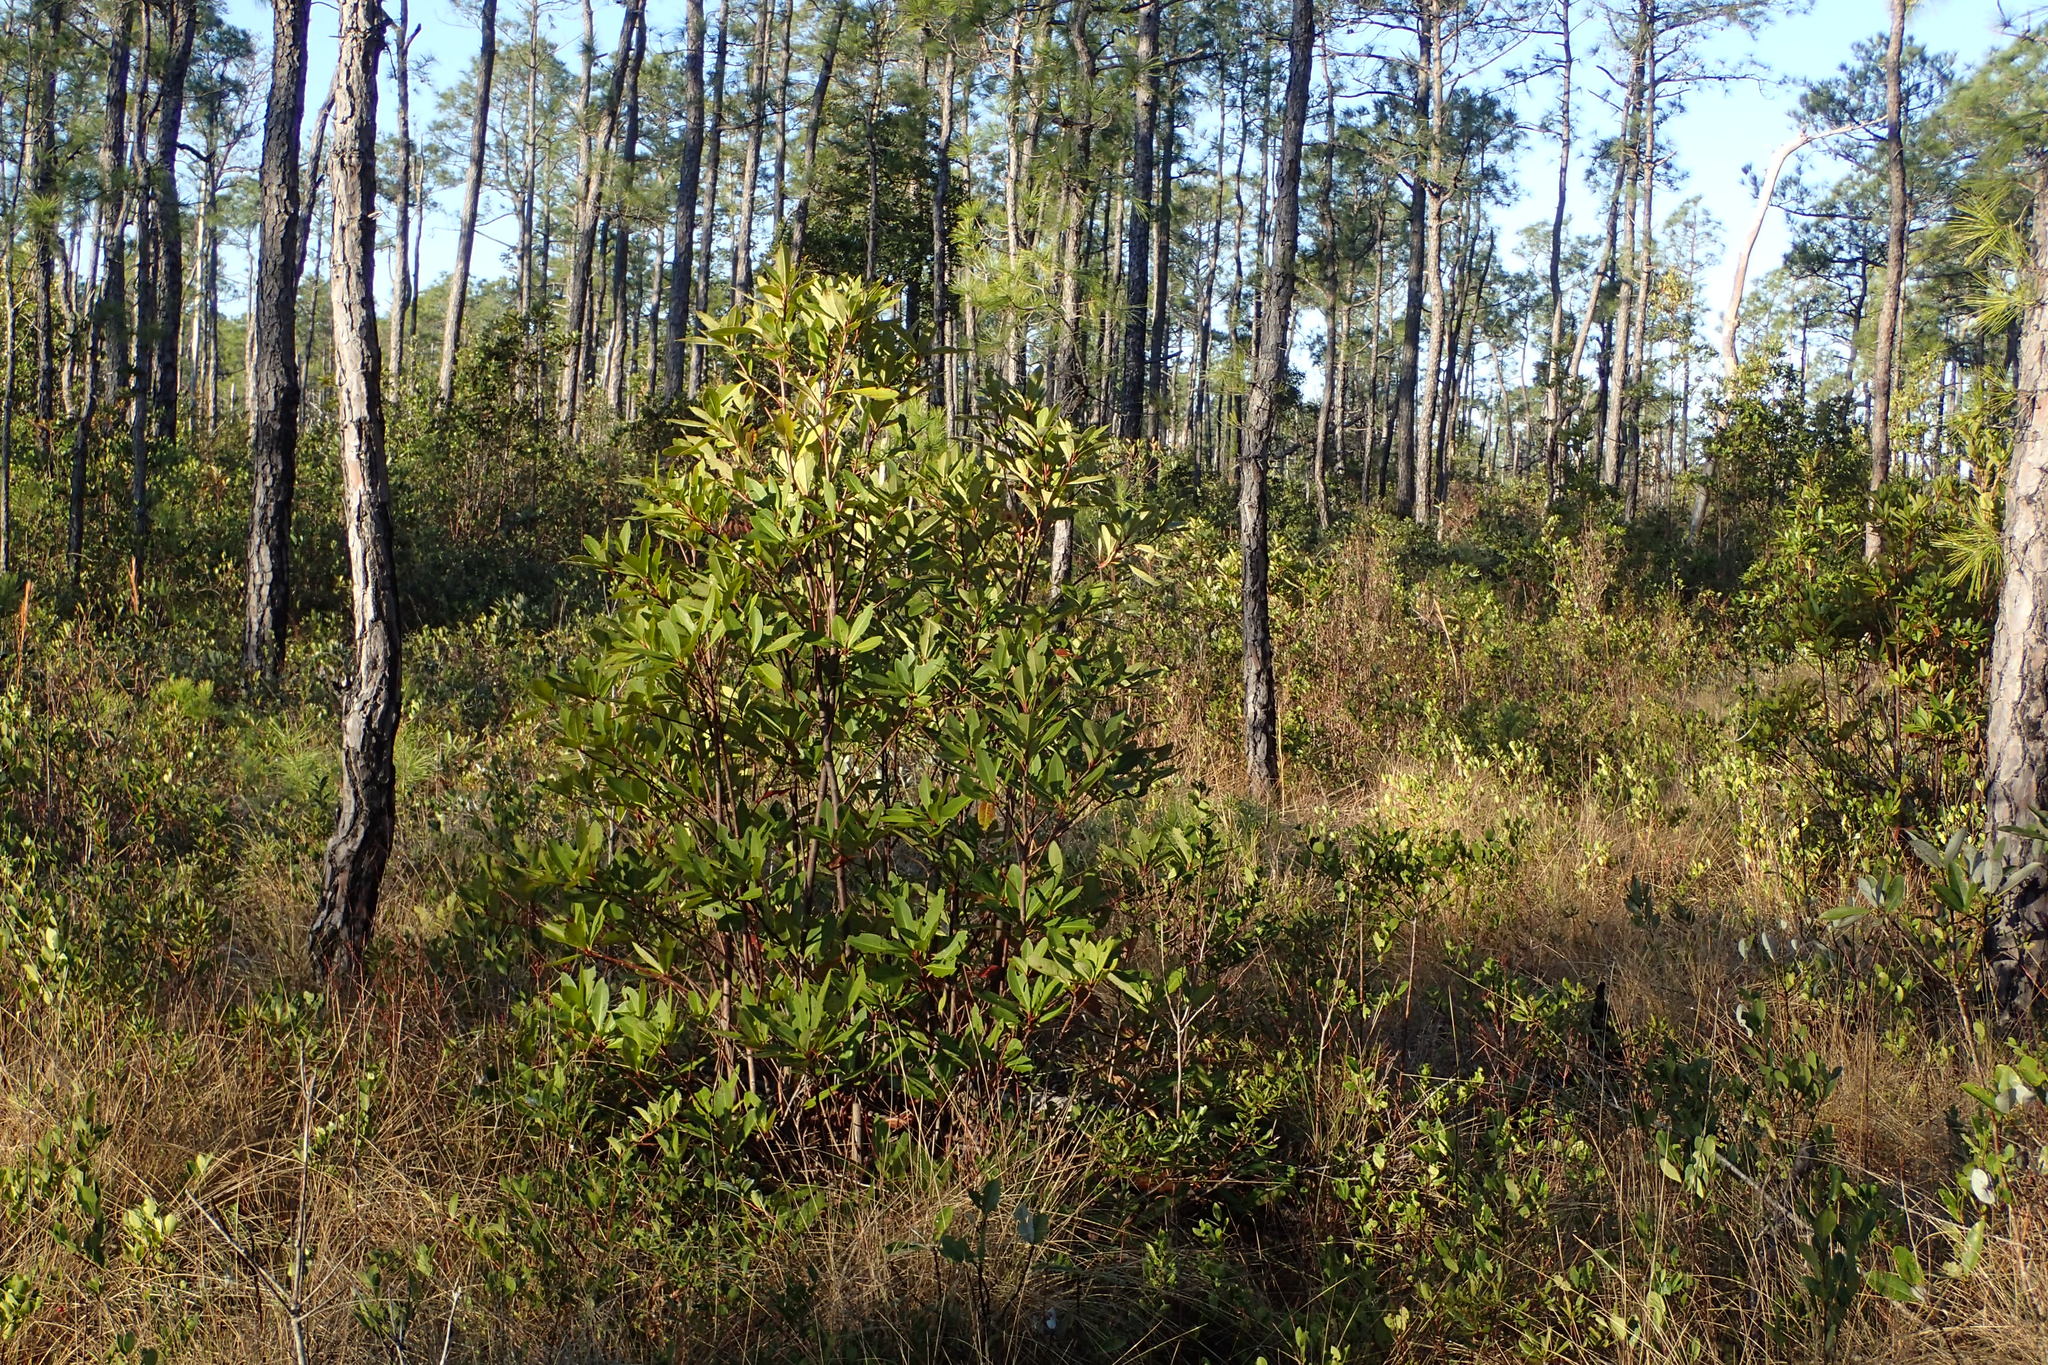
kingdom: Plantae
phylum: Tracheophyta
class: Magnoliopsida
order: Ericales
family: Theaceae
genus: Gordonia
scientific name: Gordonia lasianthus
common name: Loblolly bay
